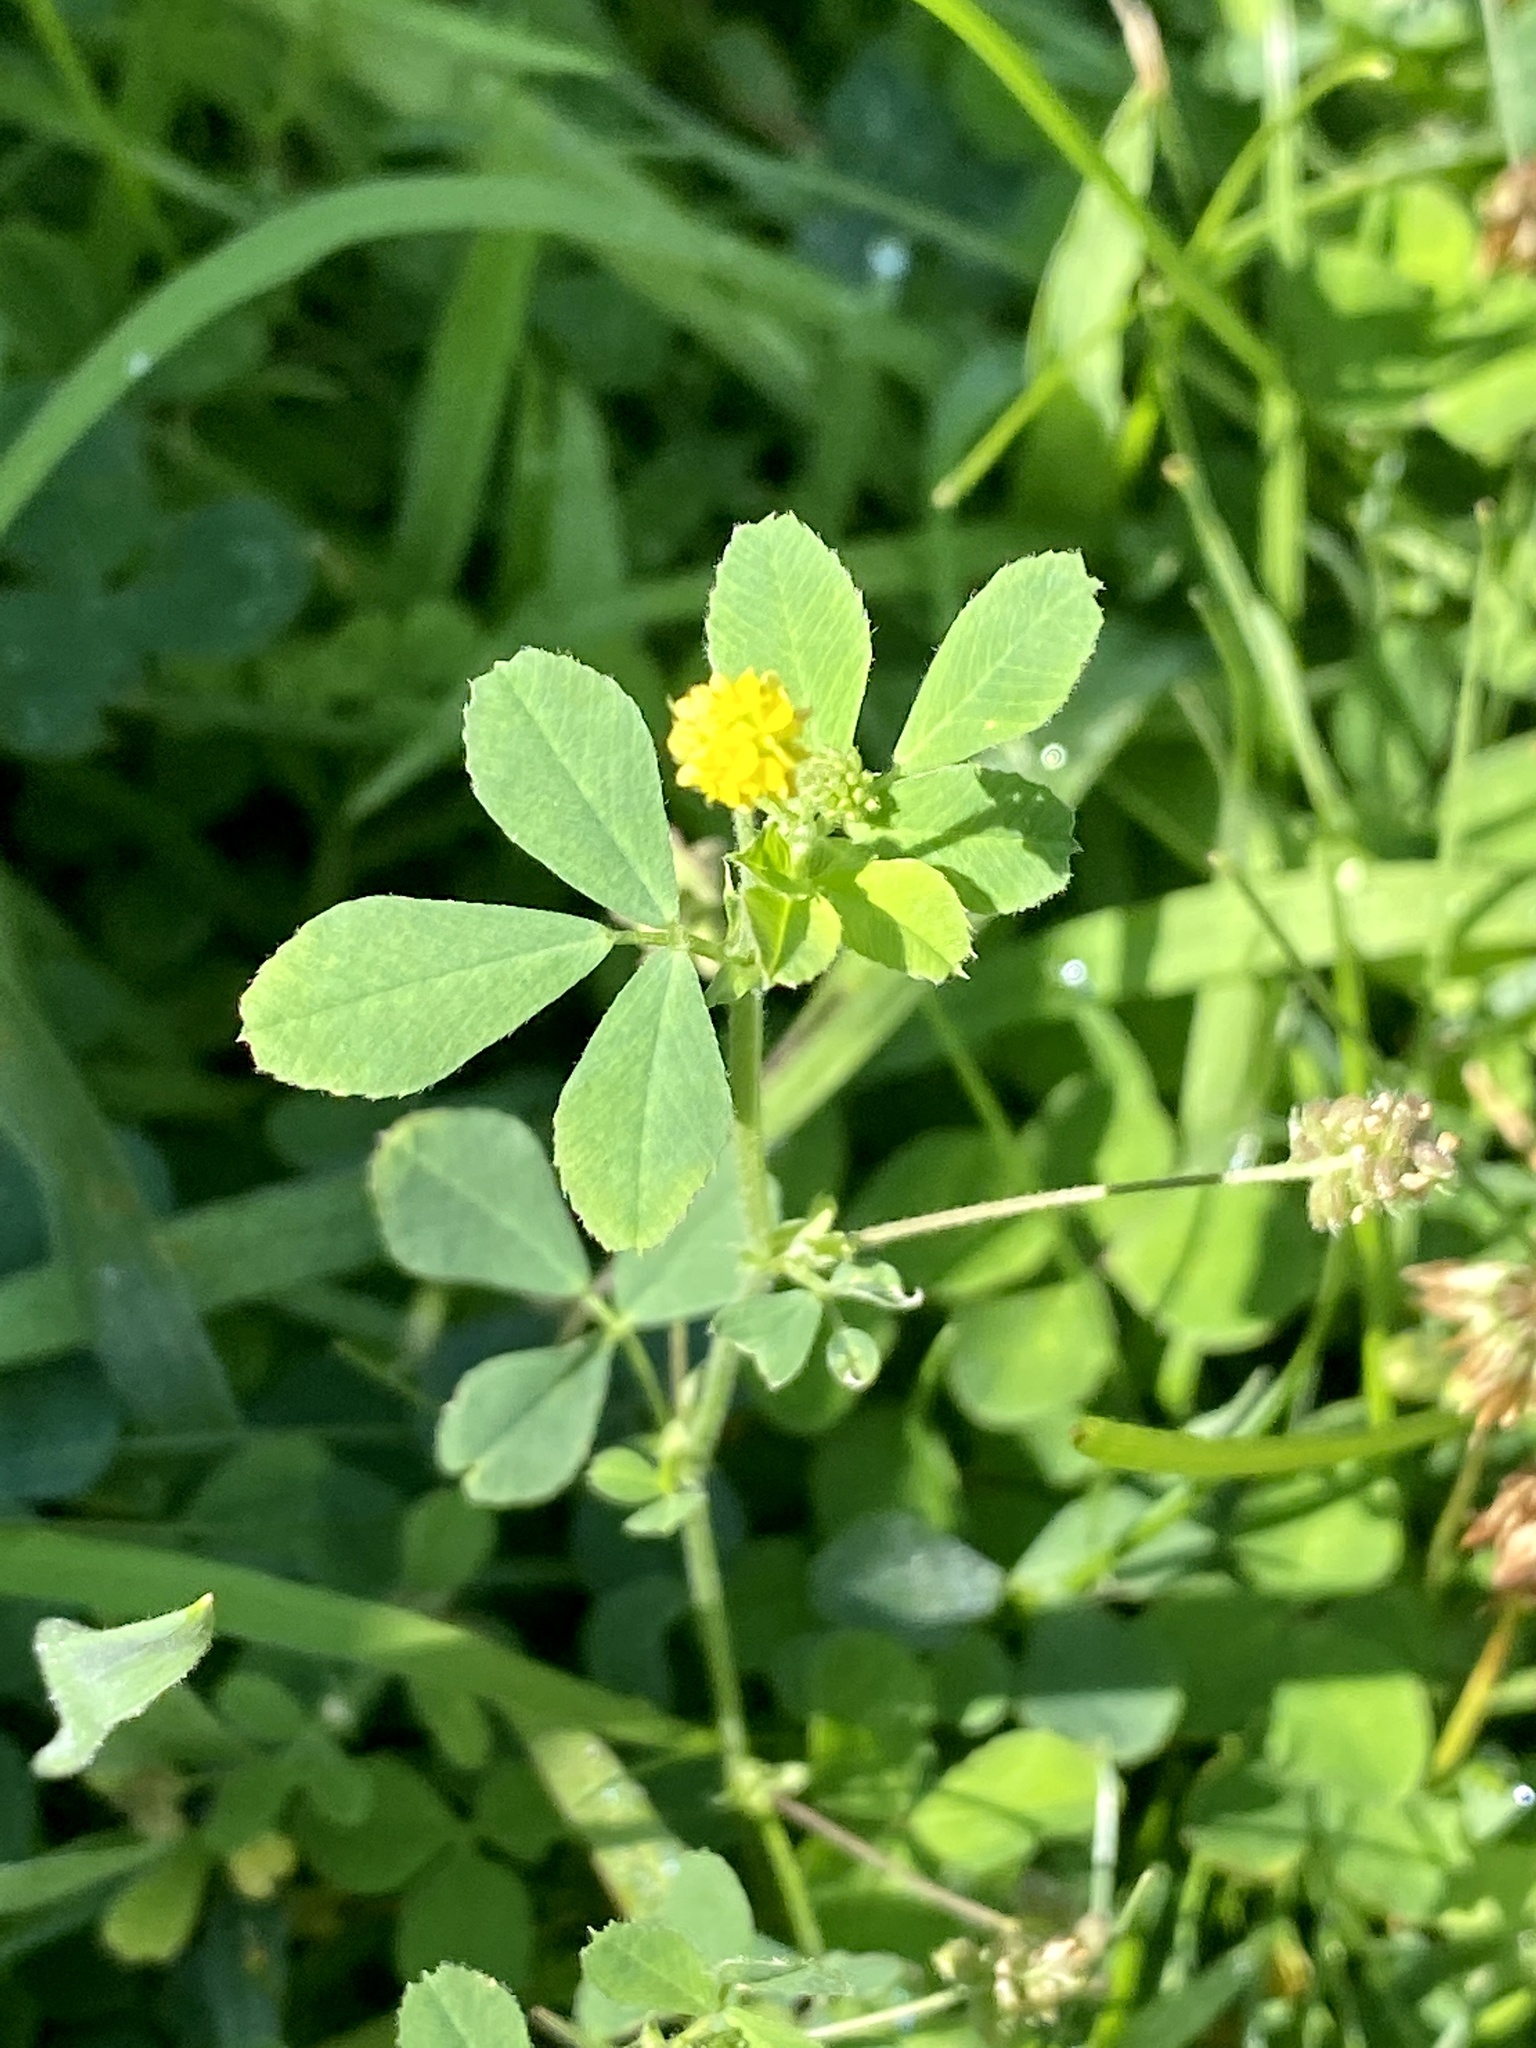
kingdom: Plantae
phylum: Tracheophyta
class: Magnoliopsida
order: Fabales
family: Fabaceae
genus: Medicago
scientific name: Medicago lupulina
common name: Black medick
